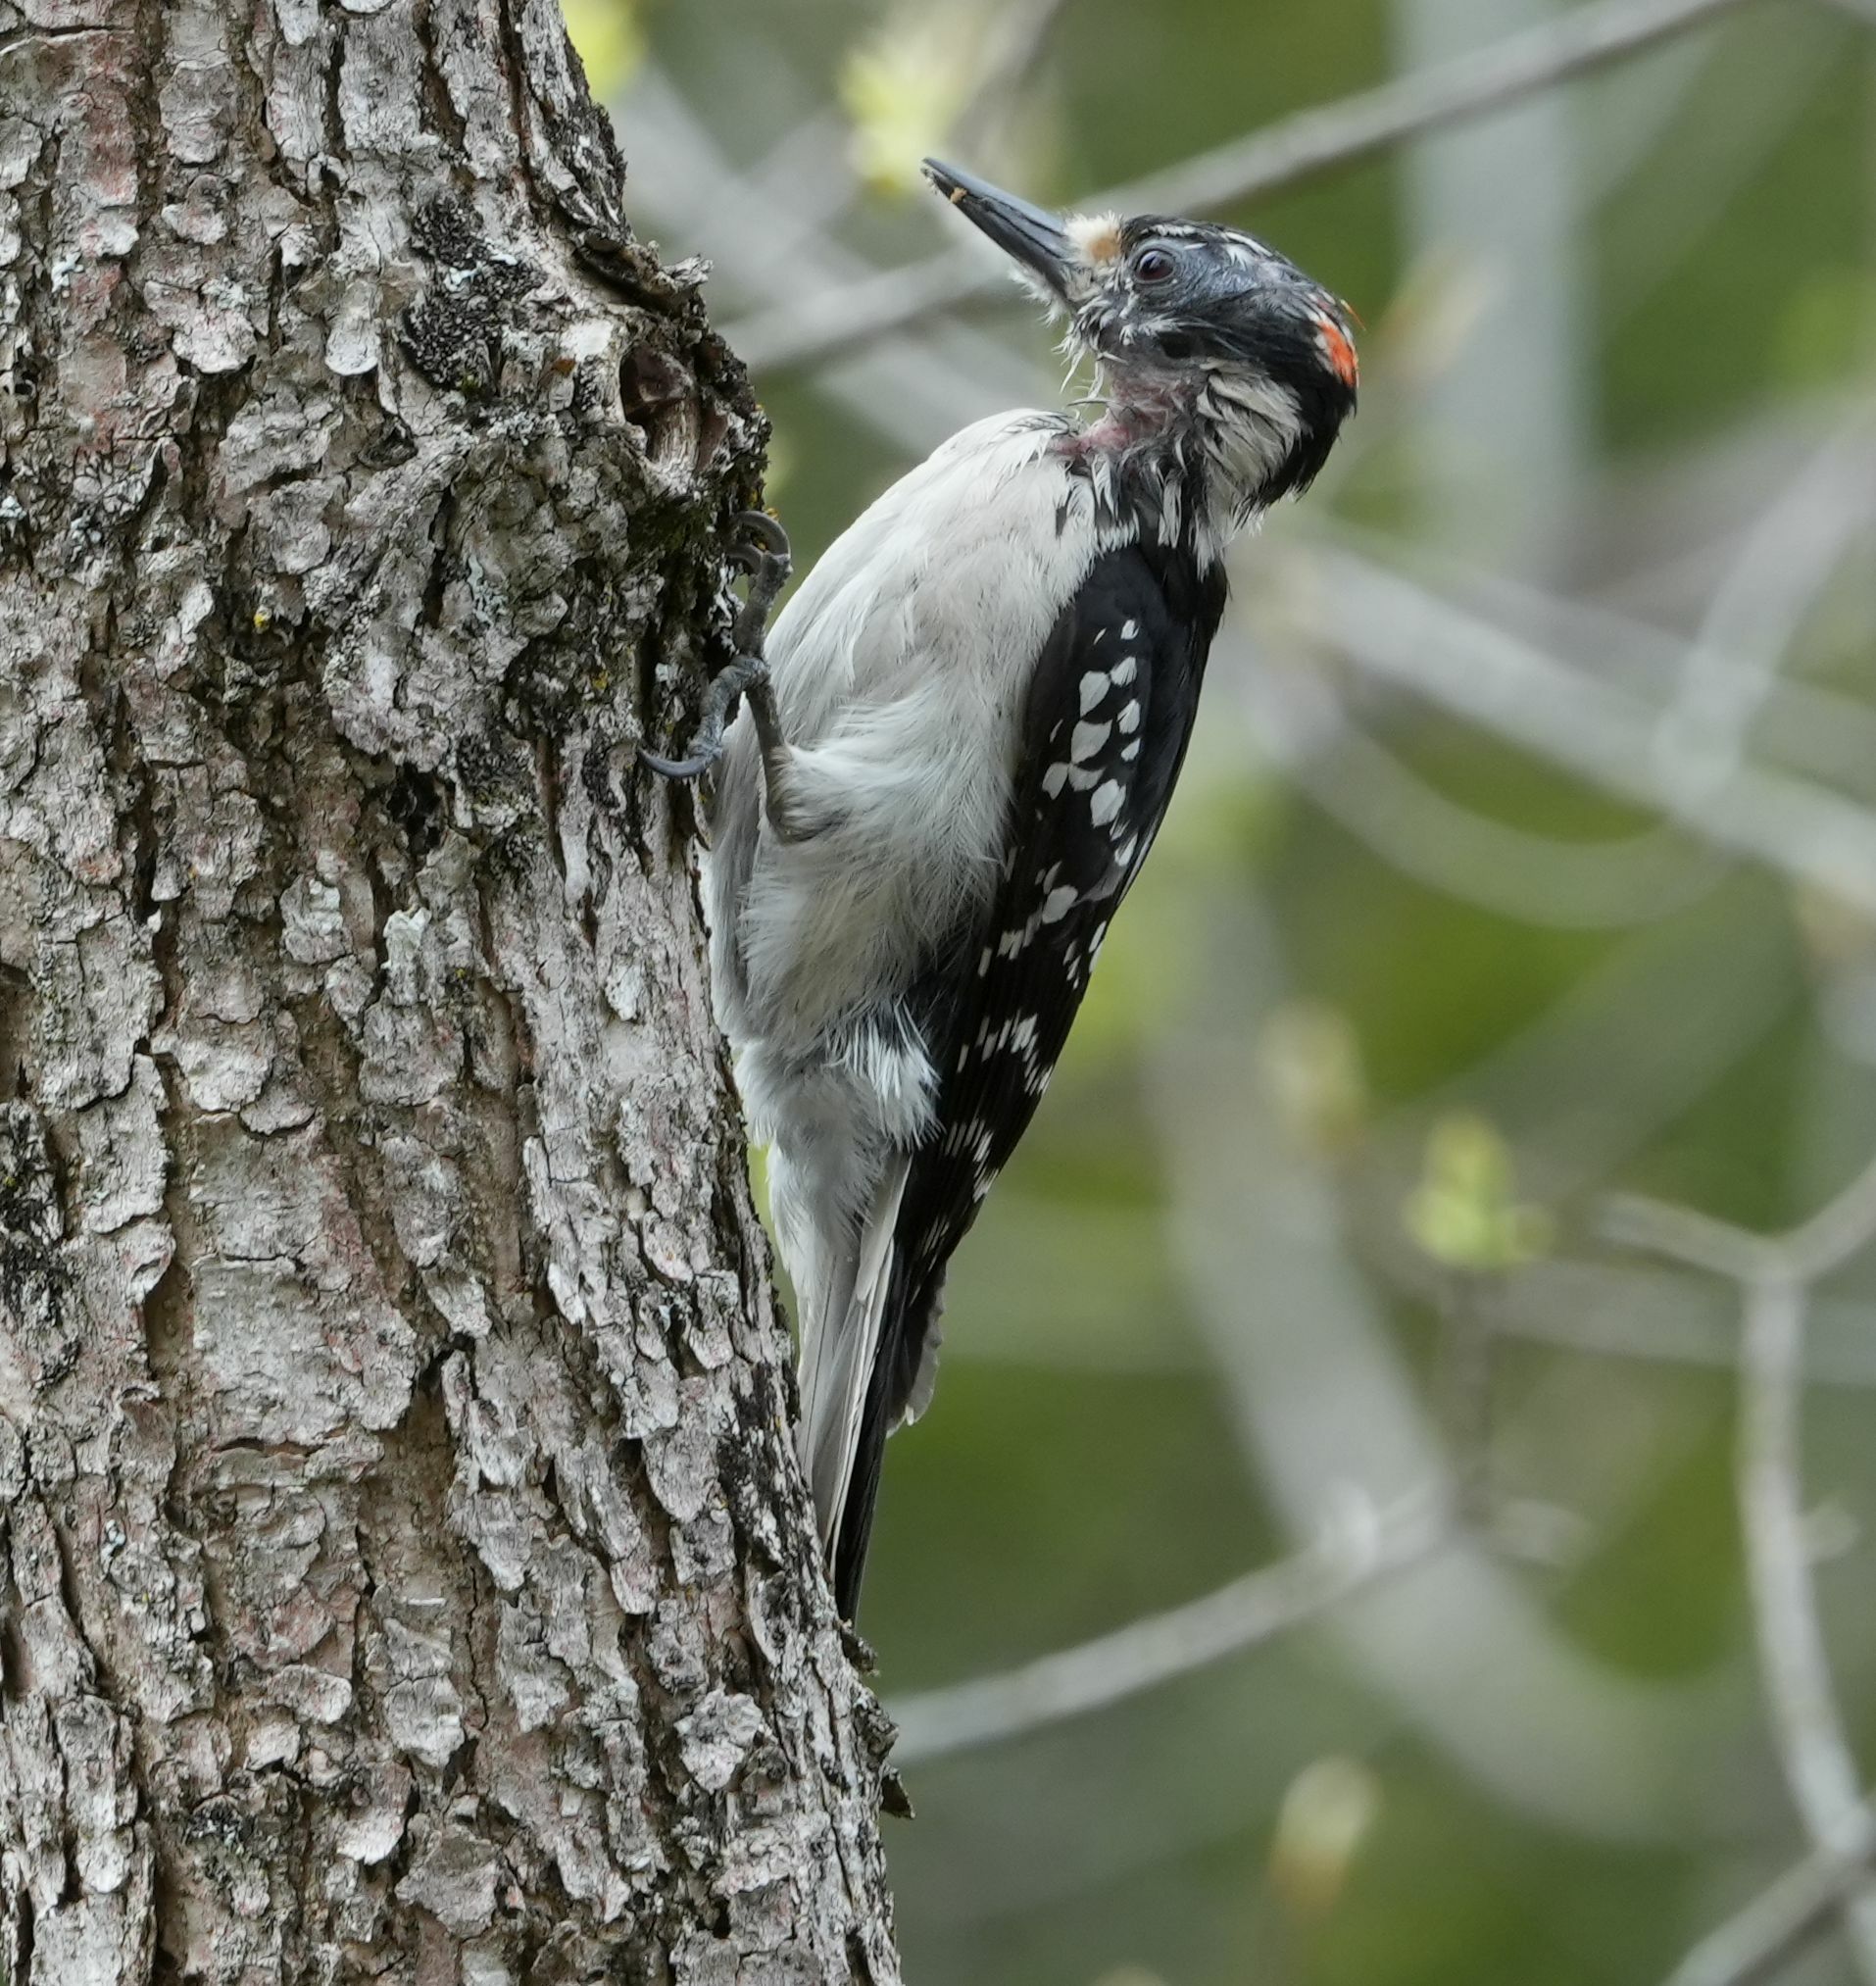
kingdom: Animalia
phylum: Chordata
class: Aves
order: Piciformes
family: Picidae
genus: Leuconotopicus
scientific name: Leuconotopicus villosus
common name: Hairy woodpecker
